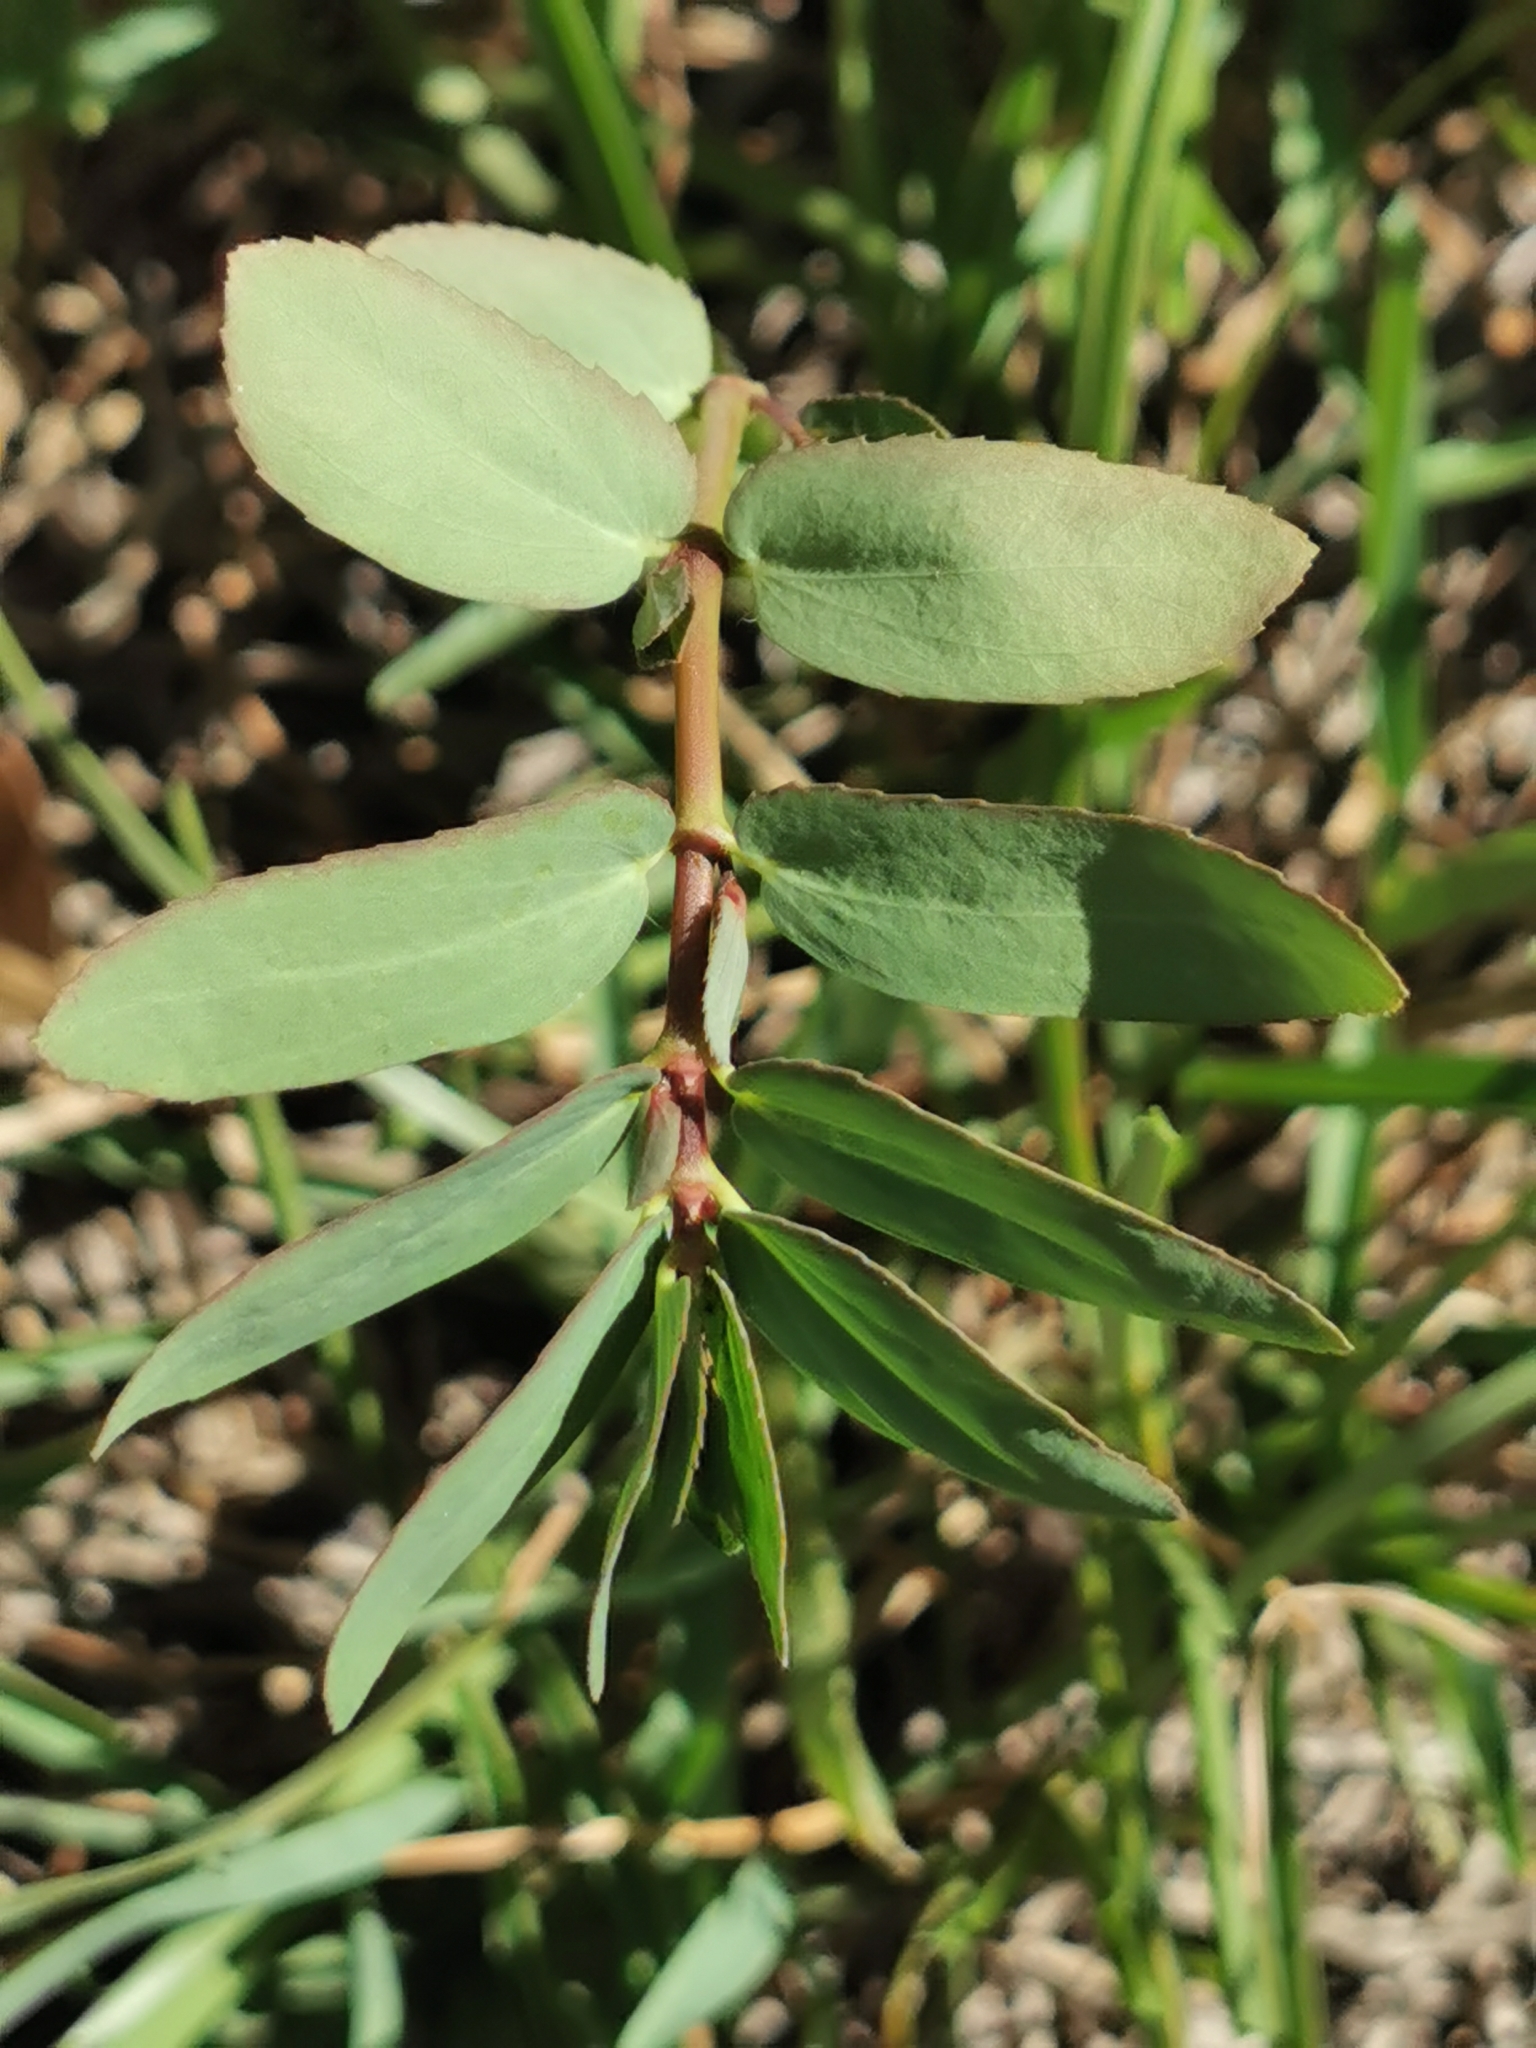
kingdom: Plantae
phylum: Tracheophyta
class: Magnoliopsida
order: Malpighiales
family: Euphorbiaceae
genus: Euphorbia
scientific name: Euphorbia nutans
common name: Eyebane
